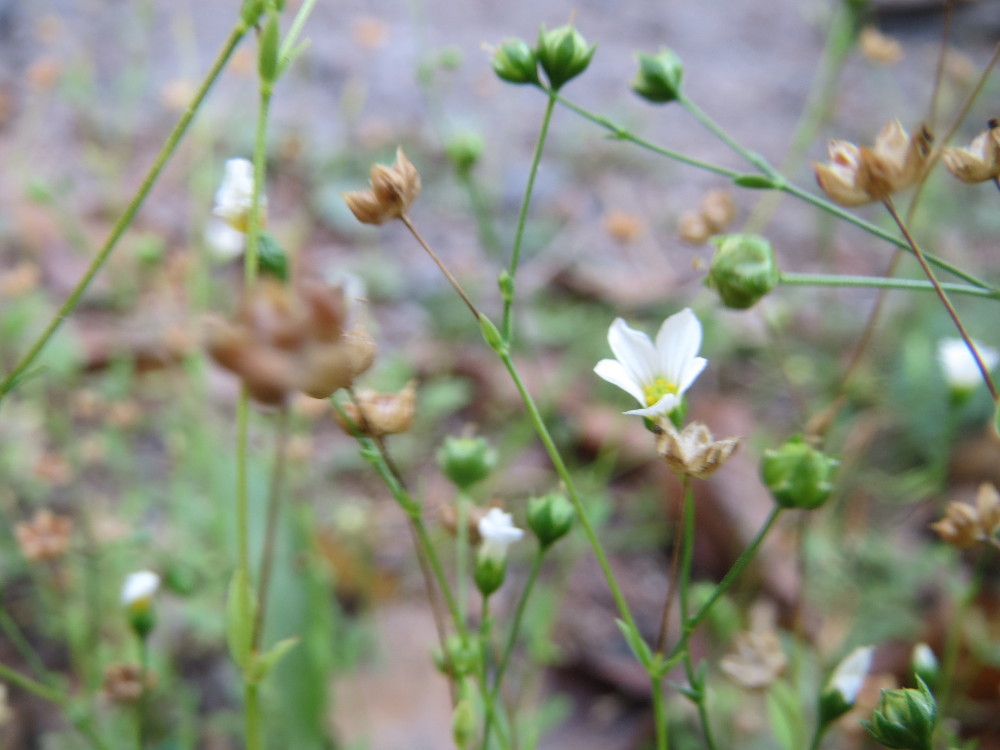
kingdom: Plantae
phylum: Tracheophyta
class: Magnoliopsida
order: Malpighiales
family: Linaceae
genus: Linum
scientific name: Linum catharticum
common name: Fairy flax
